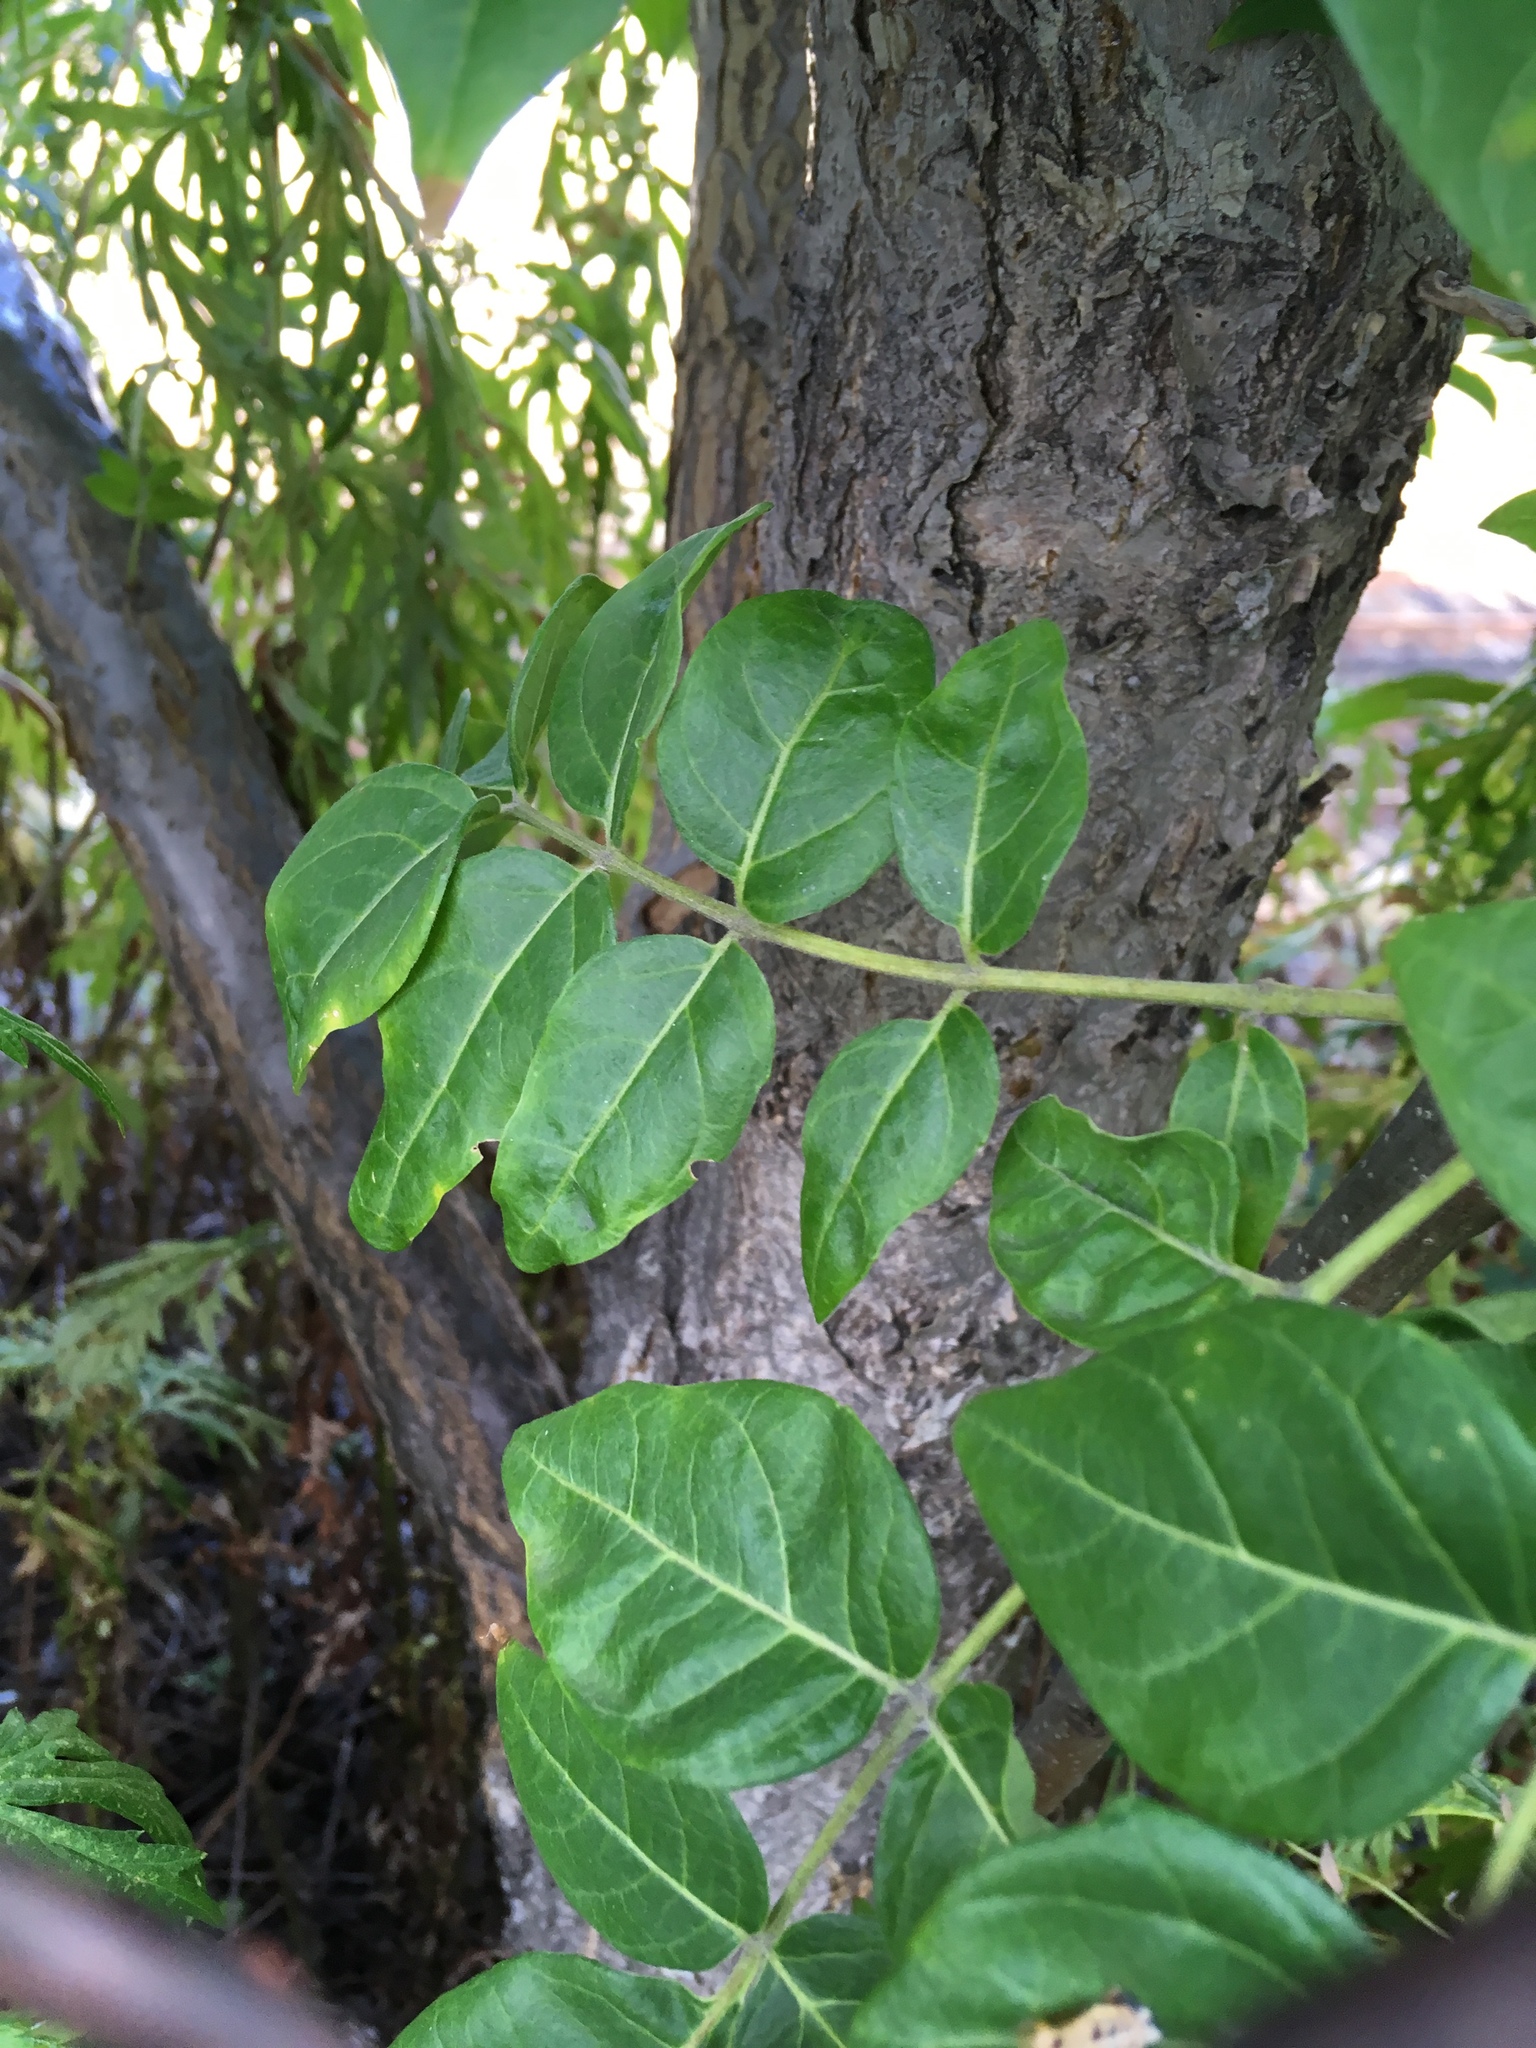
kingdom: Plantae
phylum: Tracheophyta
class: Magnoliopsida
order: Sapindales
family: Simaroubaceae
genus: Ailanthus
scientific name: Ailanthus altissima
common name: Tree-of-heaven
